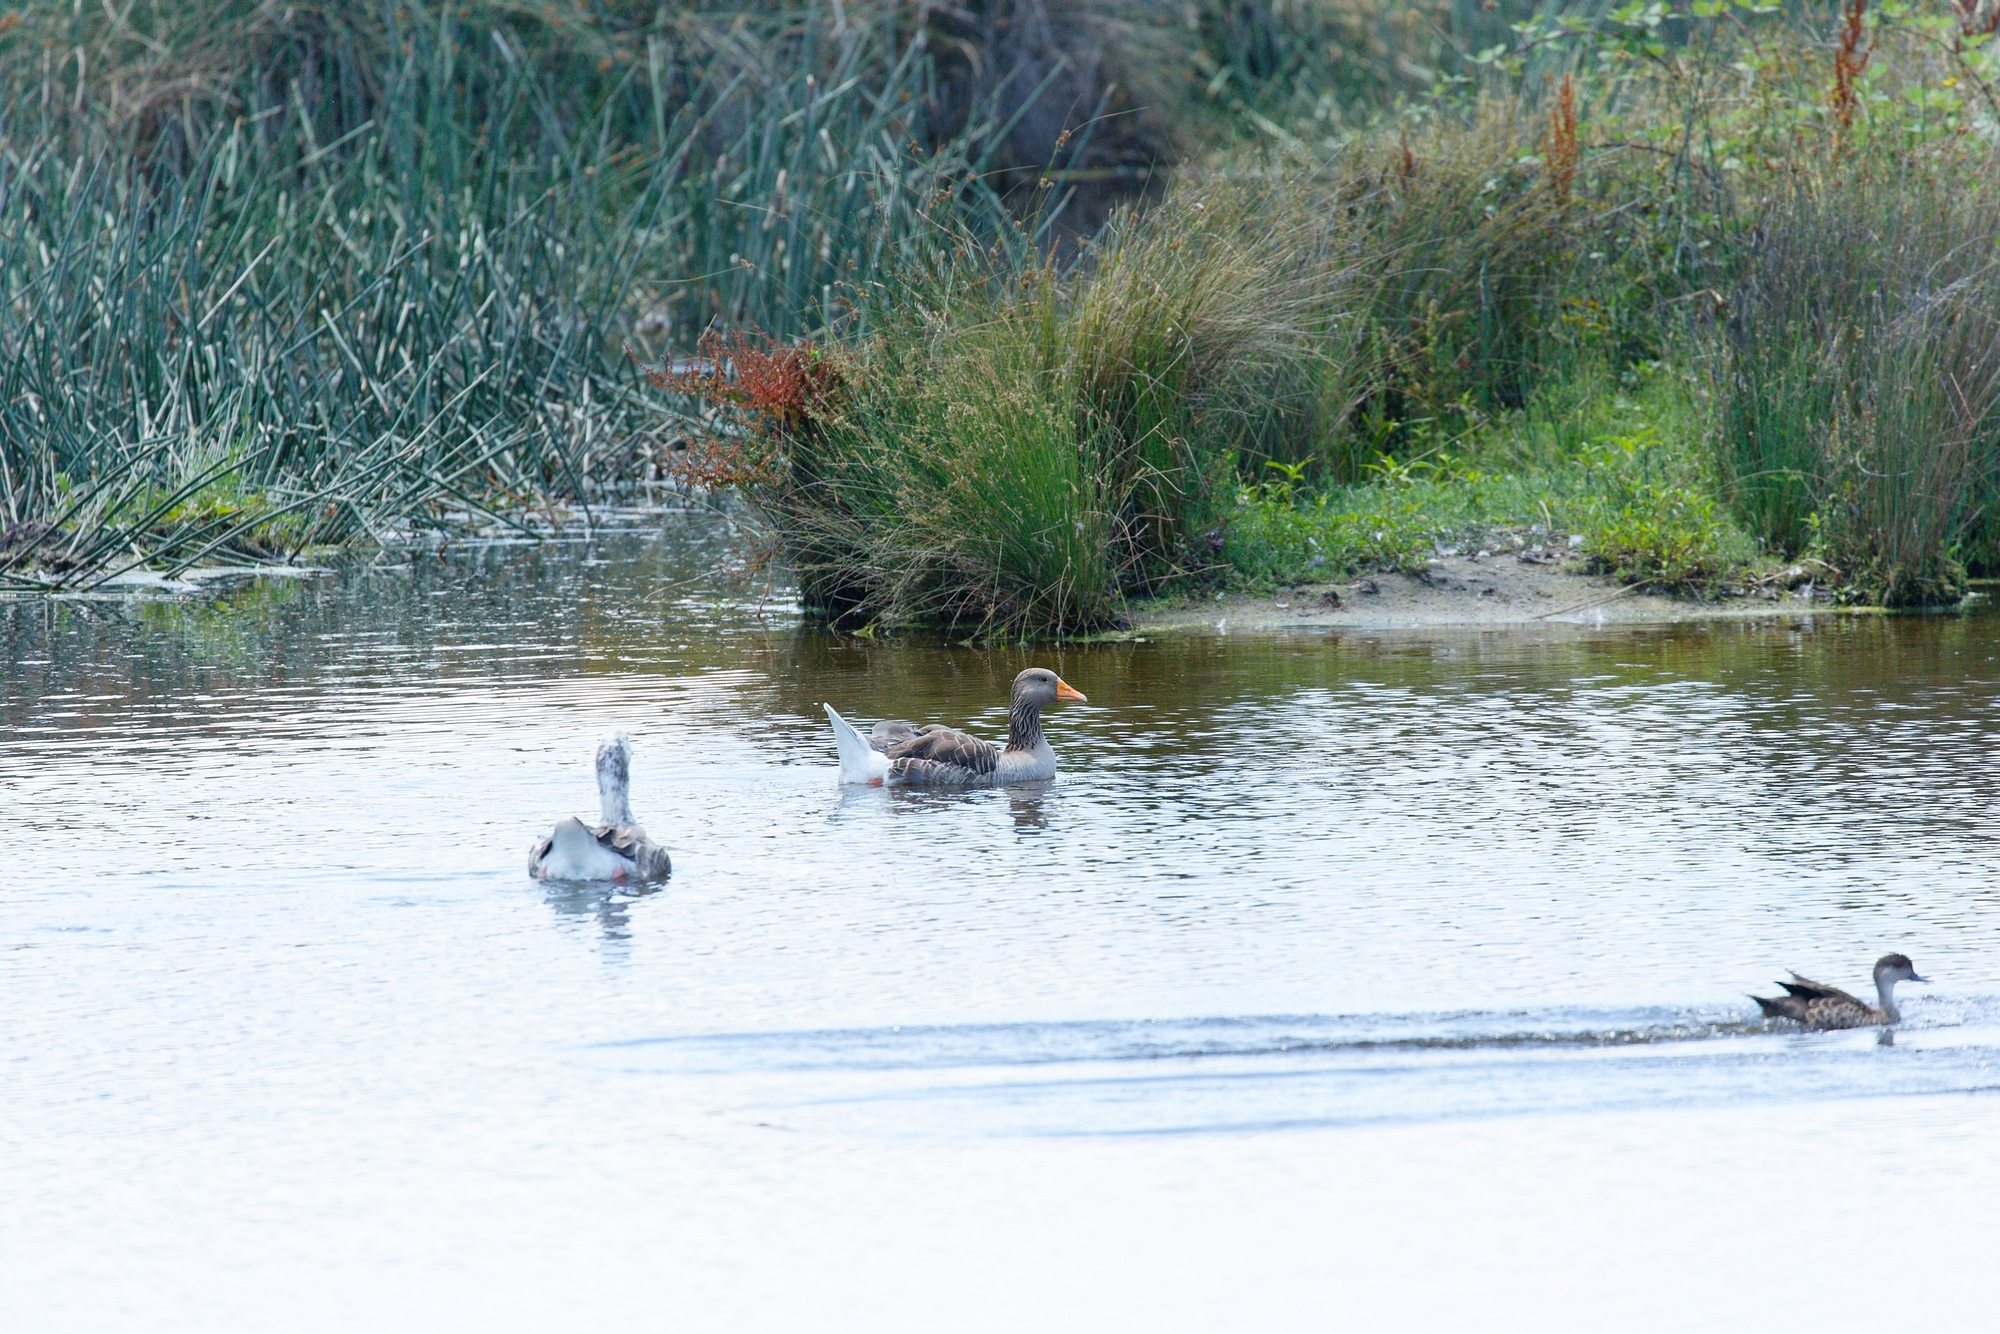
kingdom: Animalia
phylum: Chordata
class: Aves
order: Anseriformes
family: Anatidae
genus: Anser
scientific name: Anser anser
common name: Greylag goose
